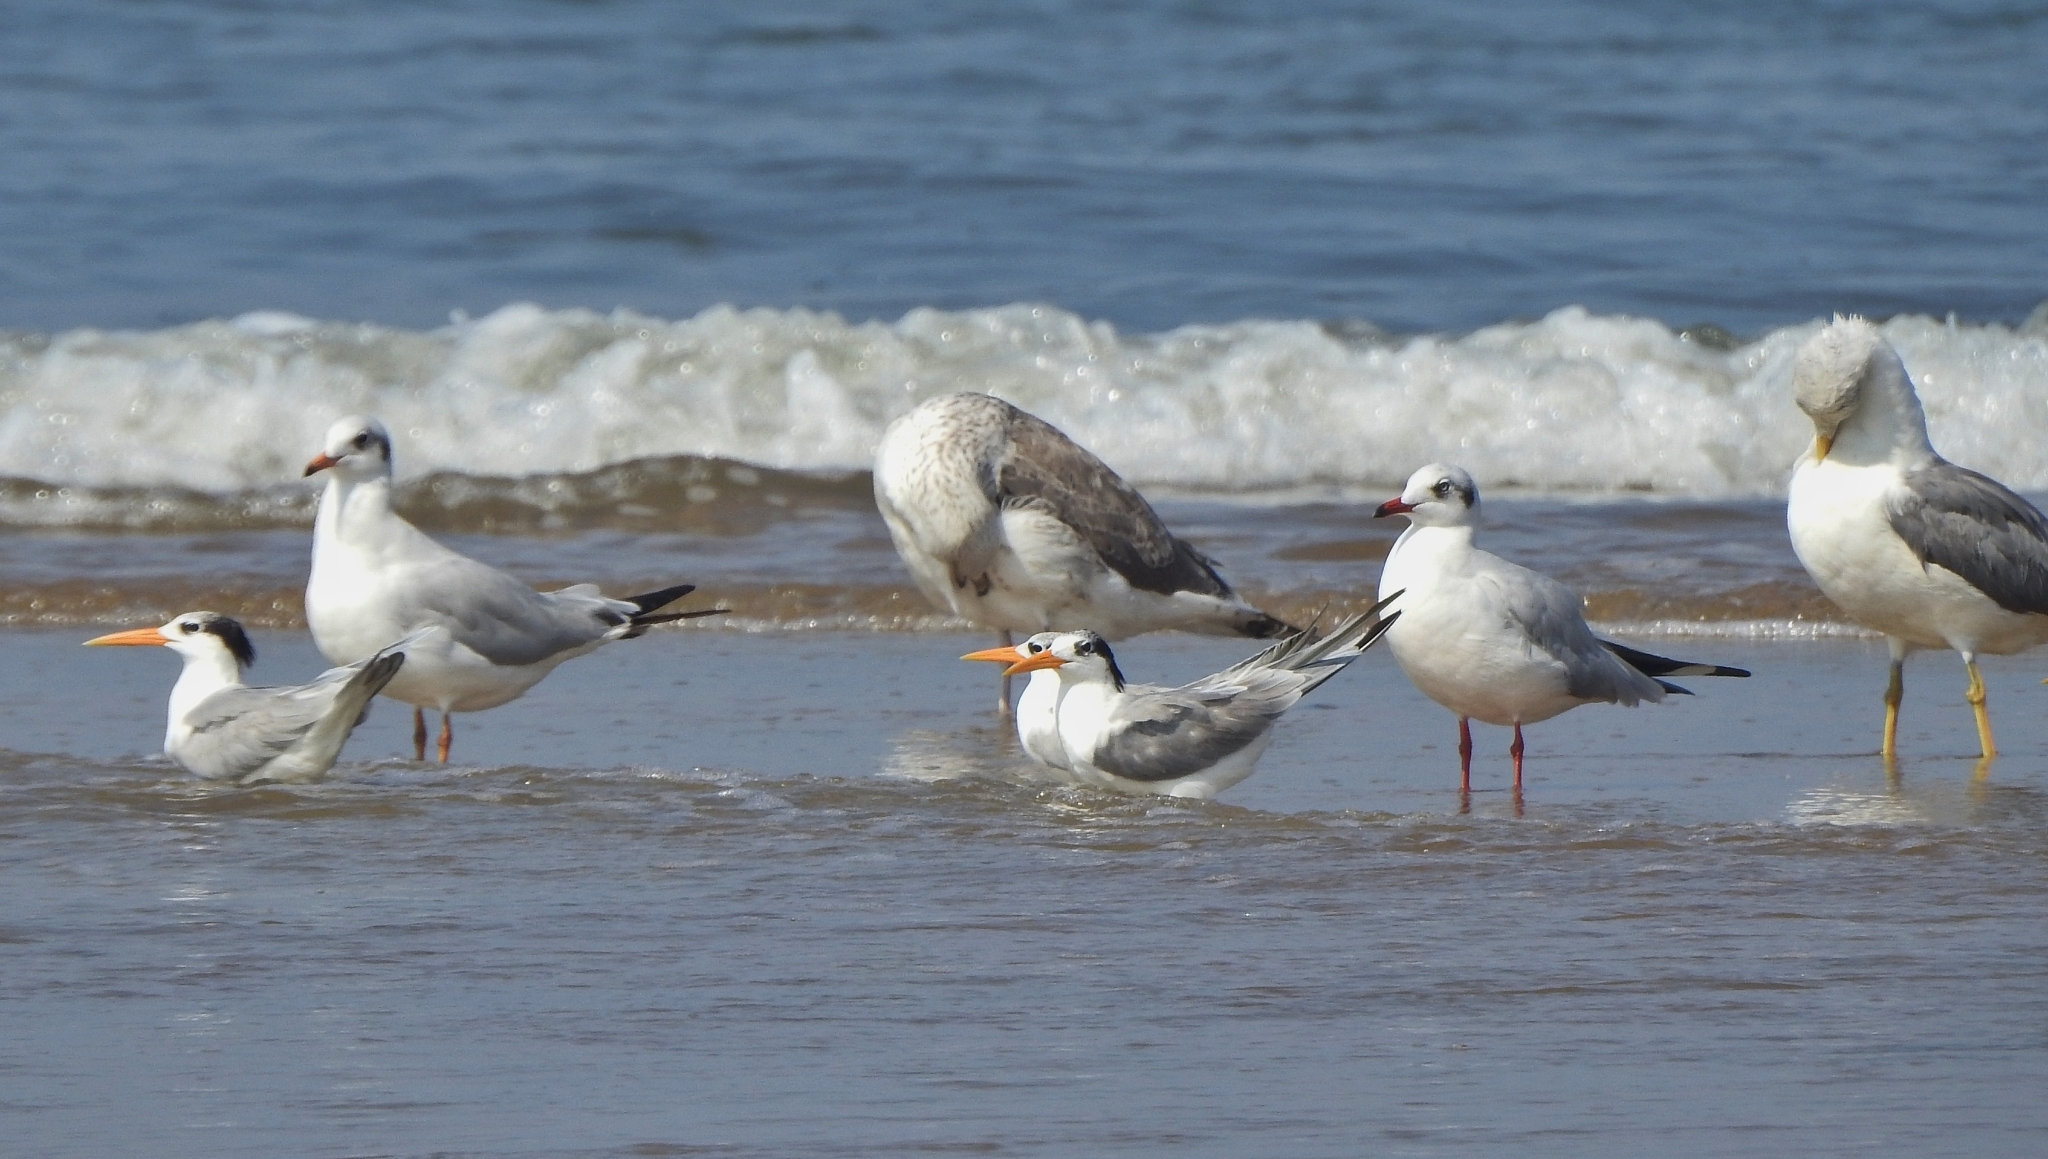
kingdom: Animalia
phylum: Chordata
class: Aves
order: Charadriiformes
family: Laridae
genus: Thalasseus
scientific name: Thalasseus bengalensis
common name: Lesser crested tern
